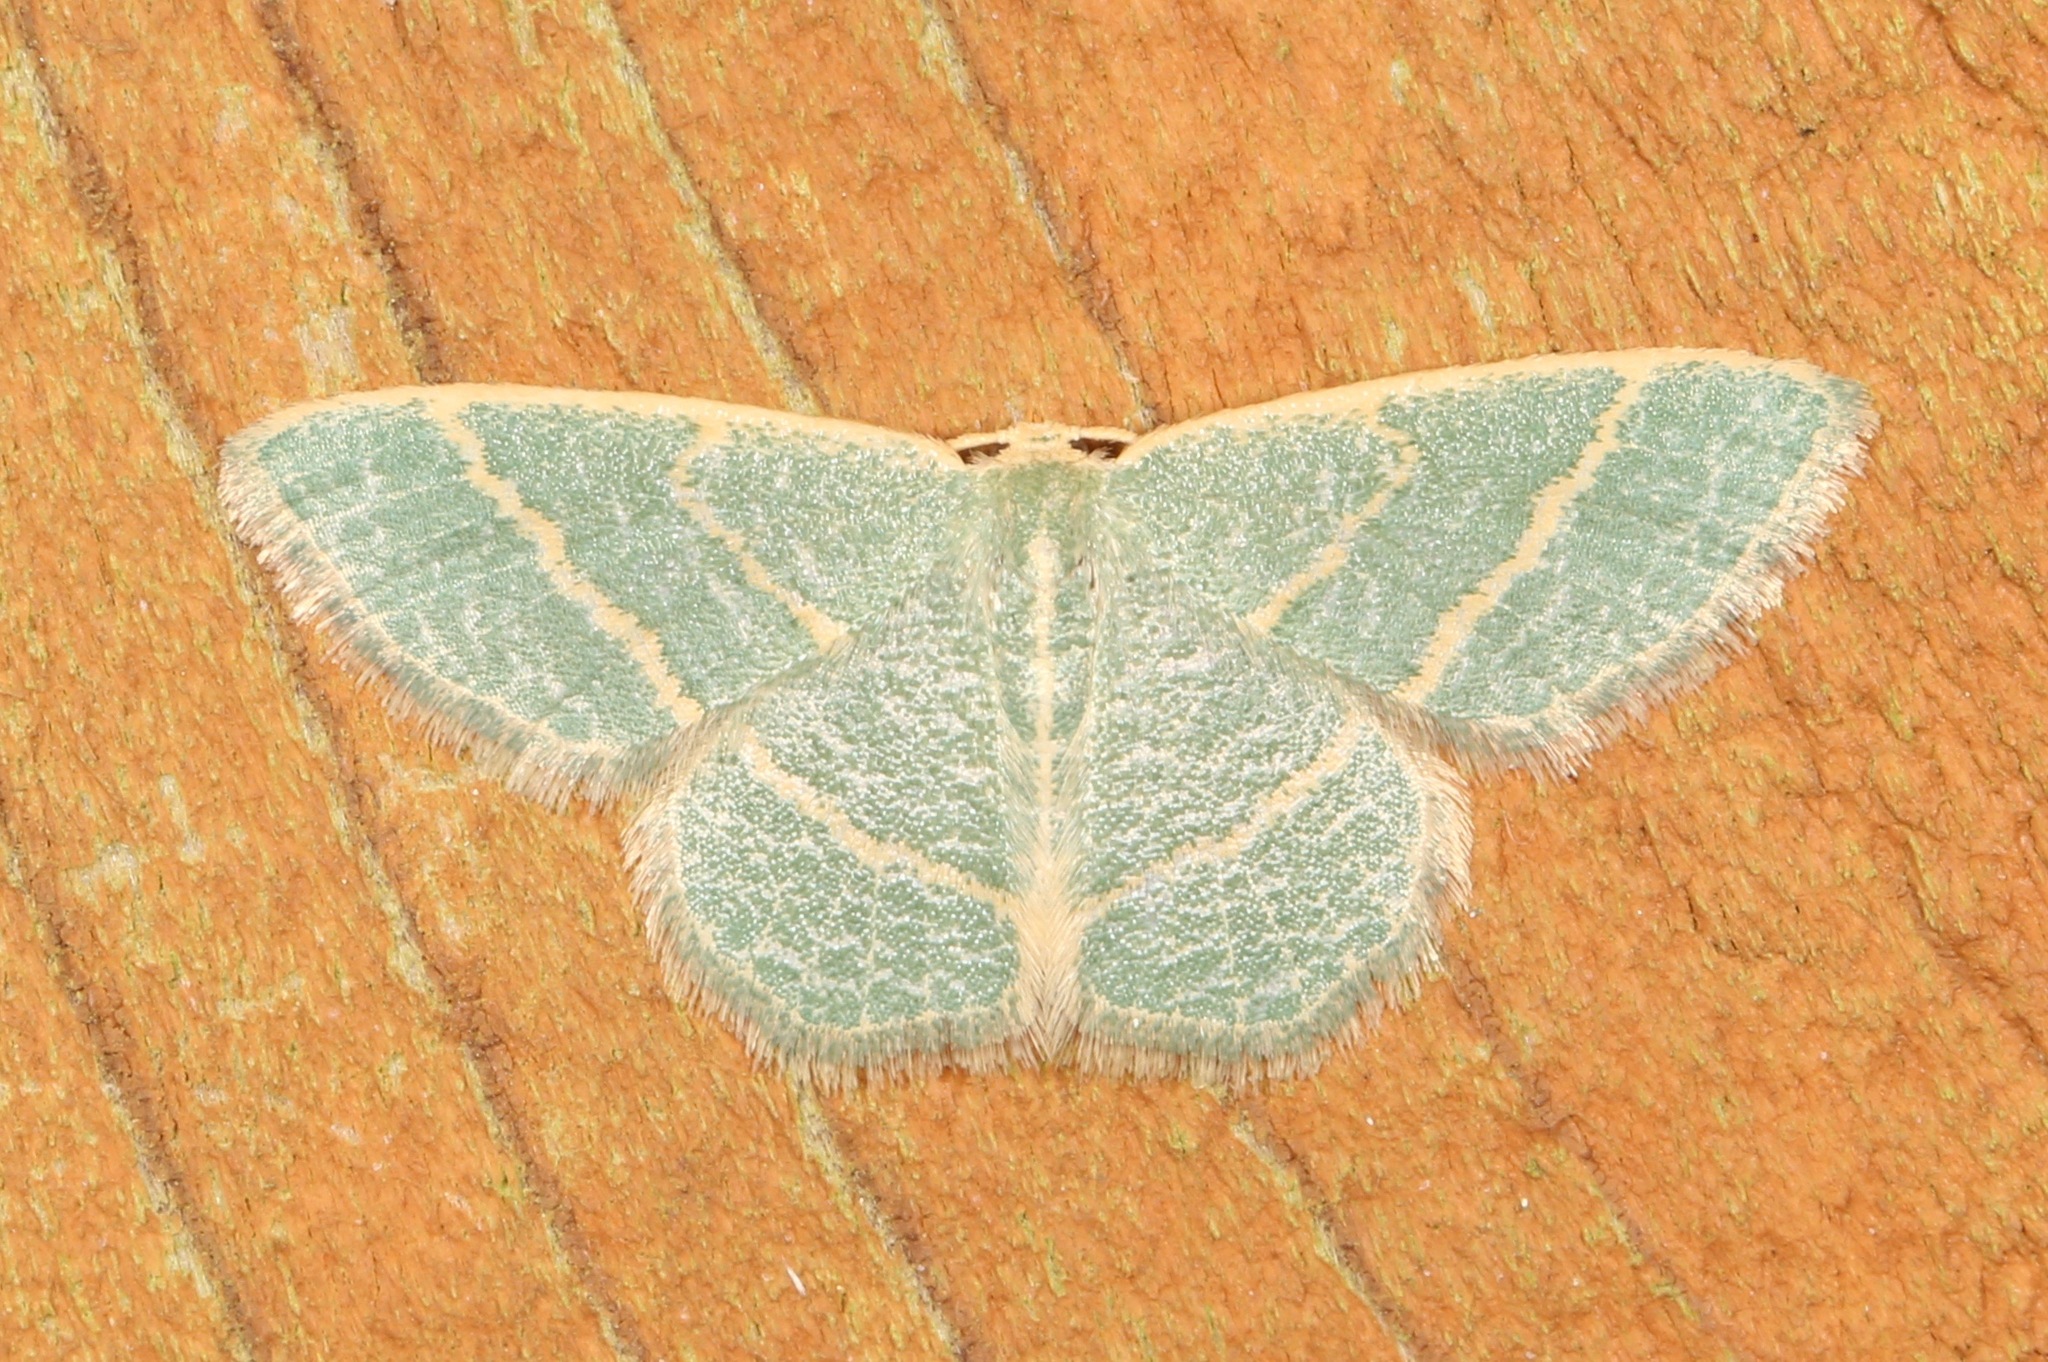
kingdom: Animalia
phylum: Arthropoda
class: Insecta
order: Lepidoptera
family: Geometridae
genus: Chlorochlamys
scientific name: Chlorochlamys chloroleucaria
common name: Blackberry looper
